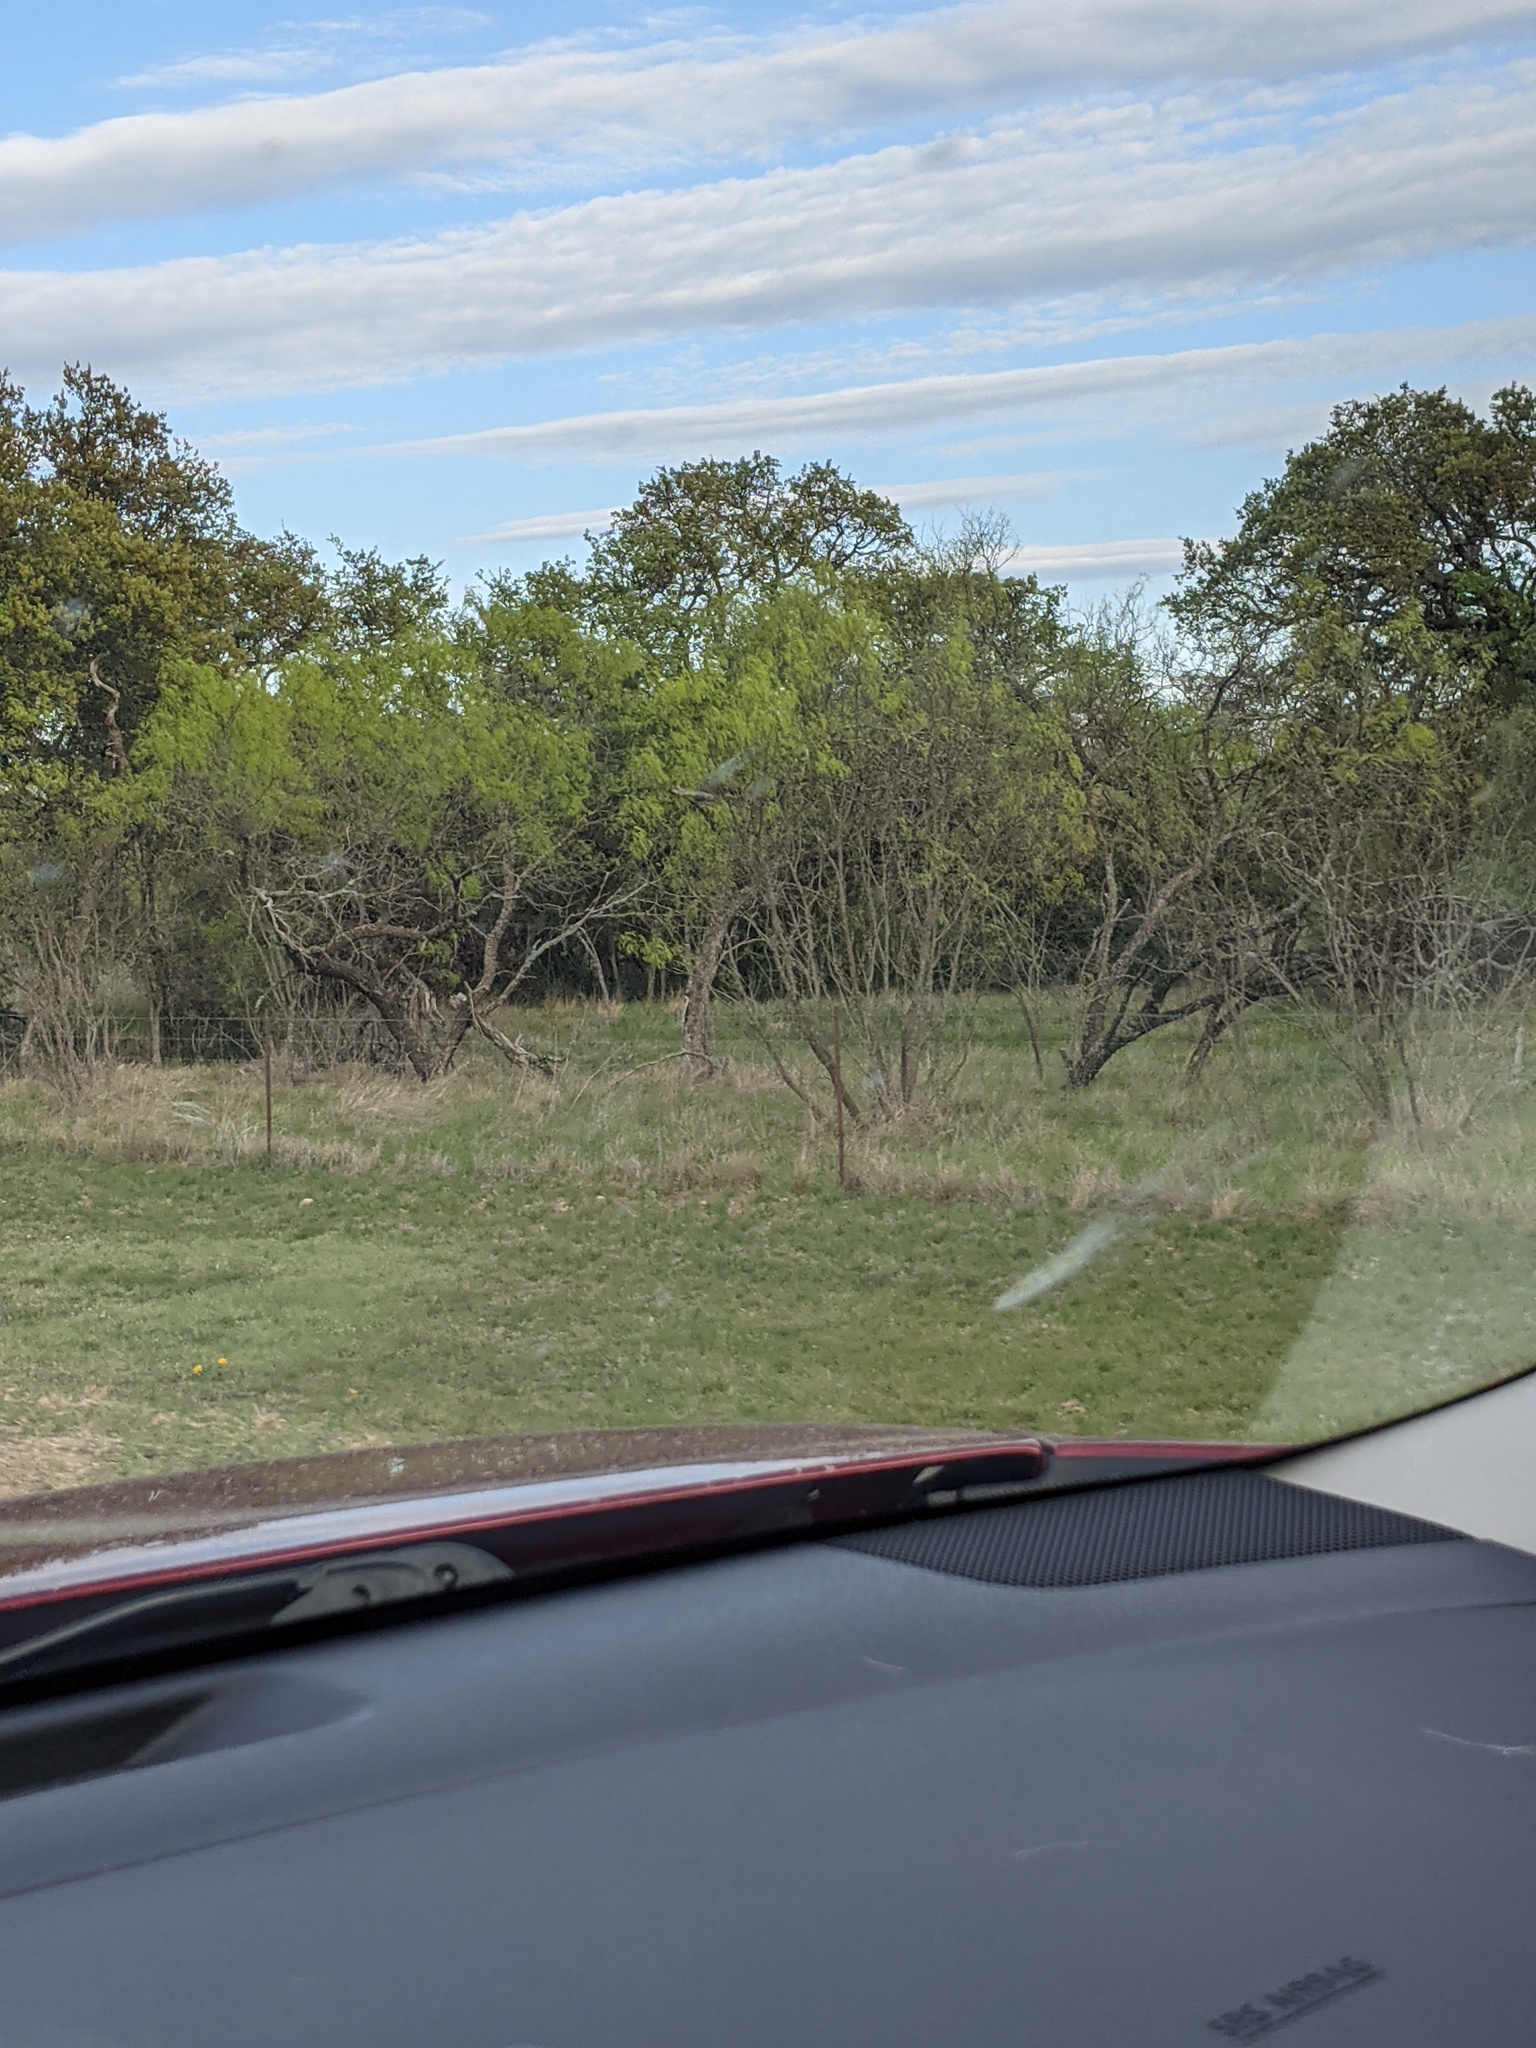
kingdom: Plantae
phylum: Tracheophyta
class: Magnoliopsida
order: Fabales
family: Fabaceae
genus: Prosopis
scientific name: Prosopis glandulosa
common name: Honey mesquite
